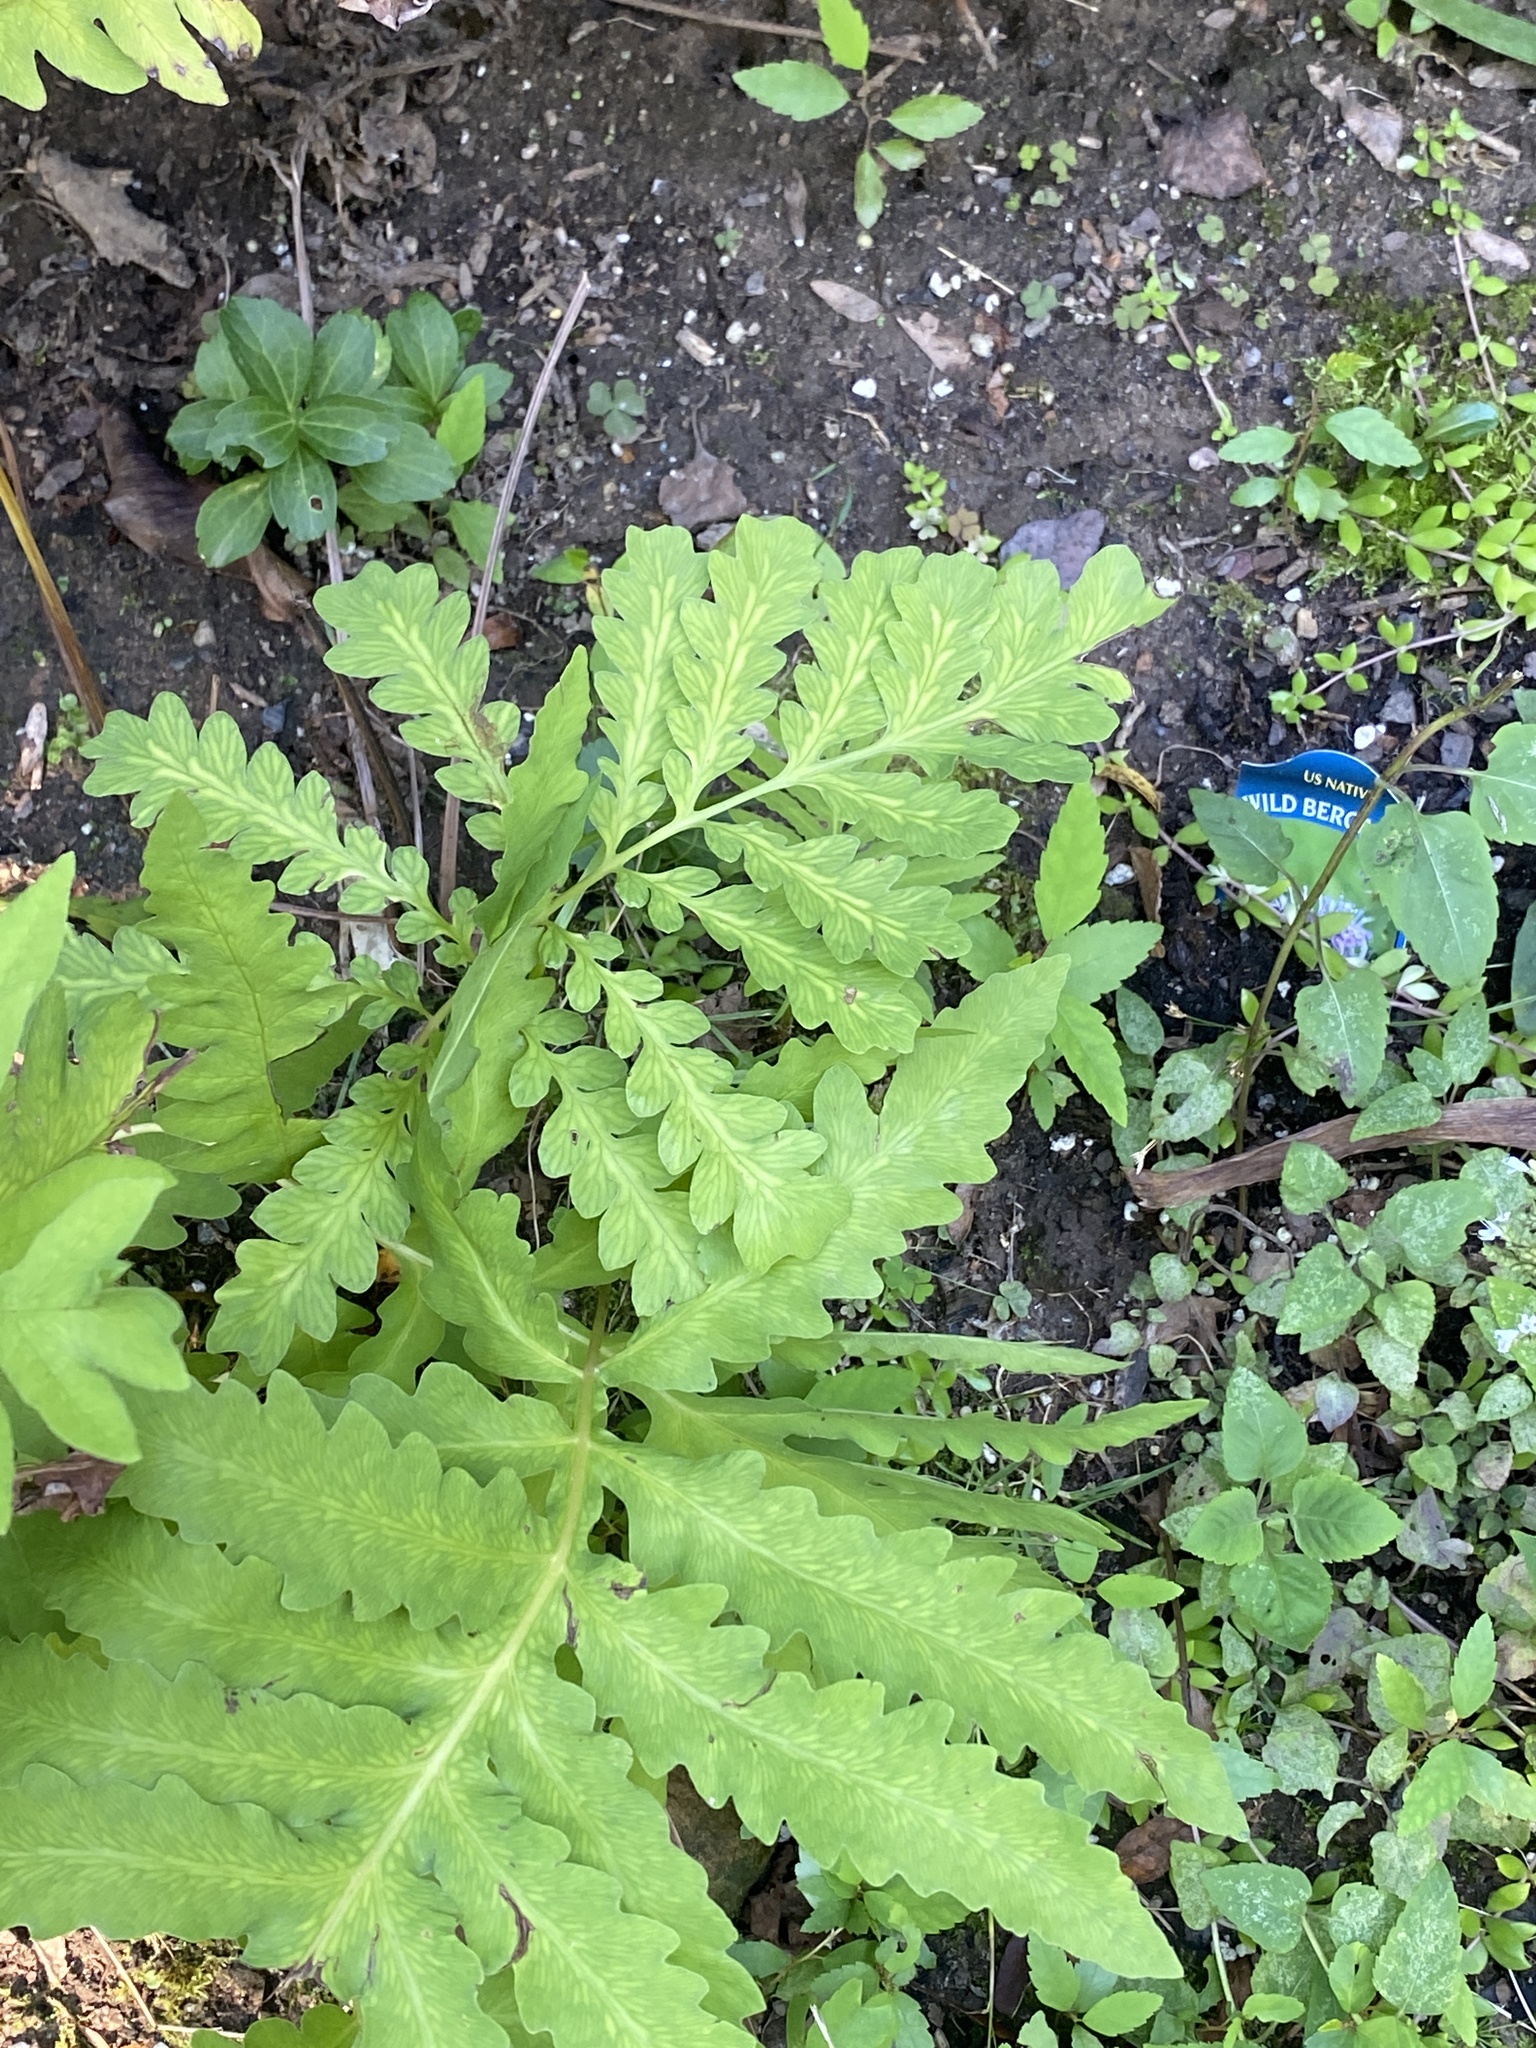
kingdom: Plantae
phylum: Tracheophyta
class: Polypodiopsida
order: Polypodiales
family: Onocleaceae
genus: Onoclea
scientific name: Onoclea sensibilis
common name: Sensitive fern
